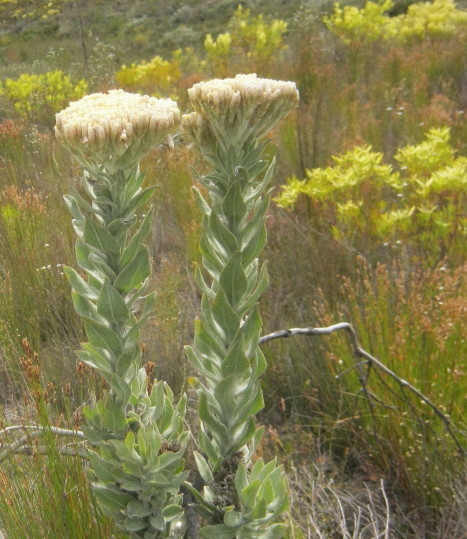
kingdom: Plantae
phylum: Tracheophyta
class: Magnoliopsida
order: Asterales
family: Asteraceae
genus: Syncarpha
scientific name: Syncarpha milleflora
